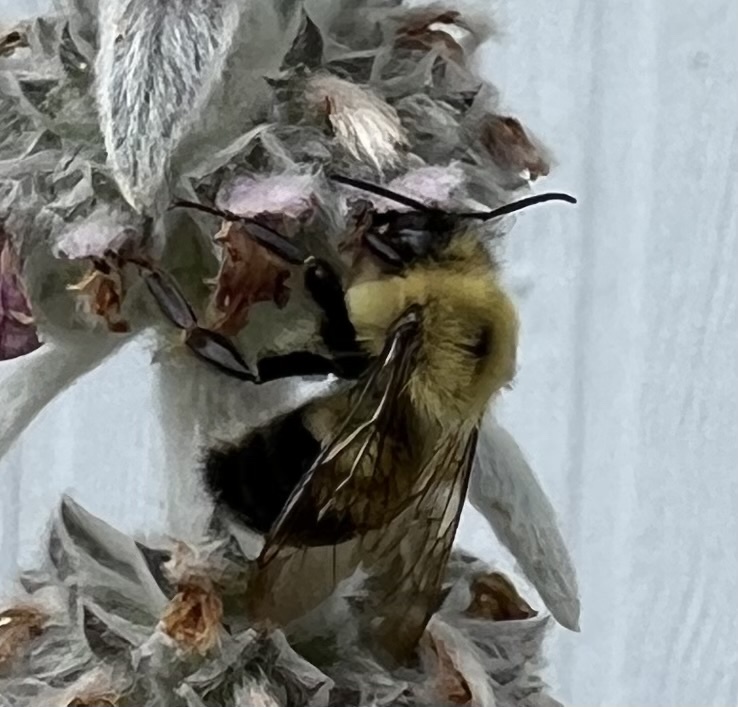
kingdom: Animalia
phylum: Arthropoda
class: Insecta
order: Hymenoptera
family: Apidae
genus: Bombus
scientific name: Bombus bimaculatus
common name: Two-spotted bumble bee
